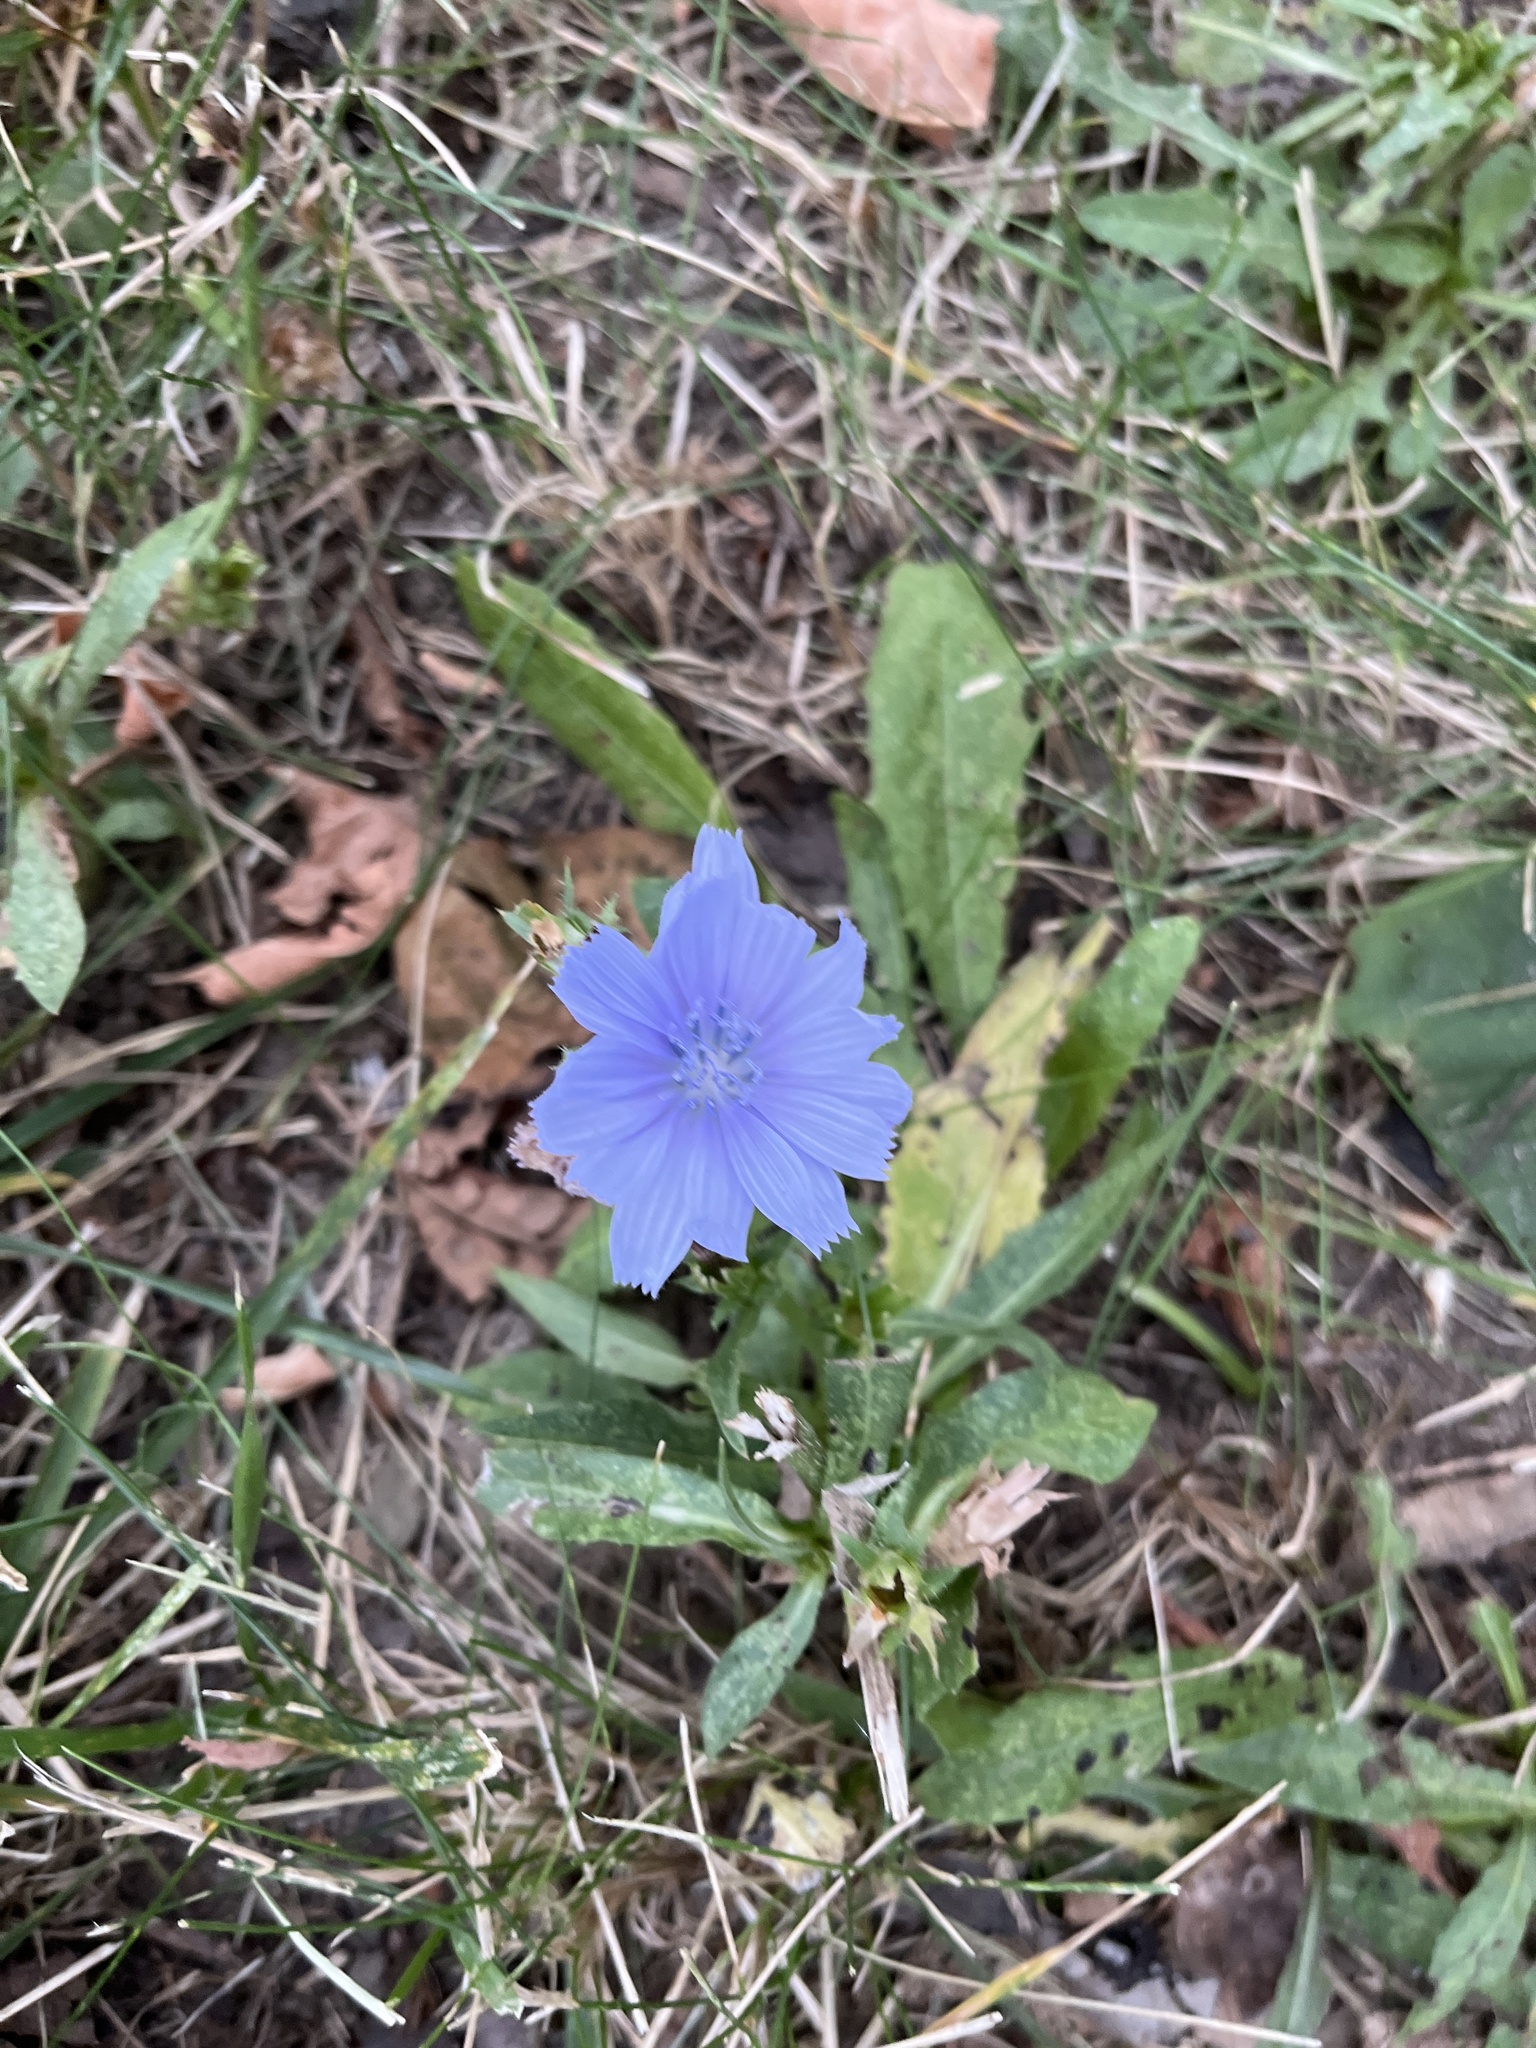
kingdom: Plantae
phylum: Tracheophyta
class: Magnoliopsida
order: Asterales
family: Asteraceae
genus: Cichorium
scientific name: Cichorium intybus
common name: Chicory
